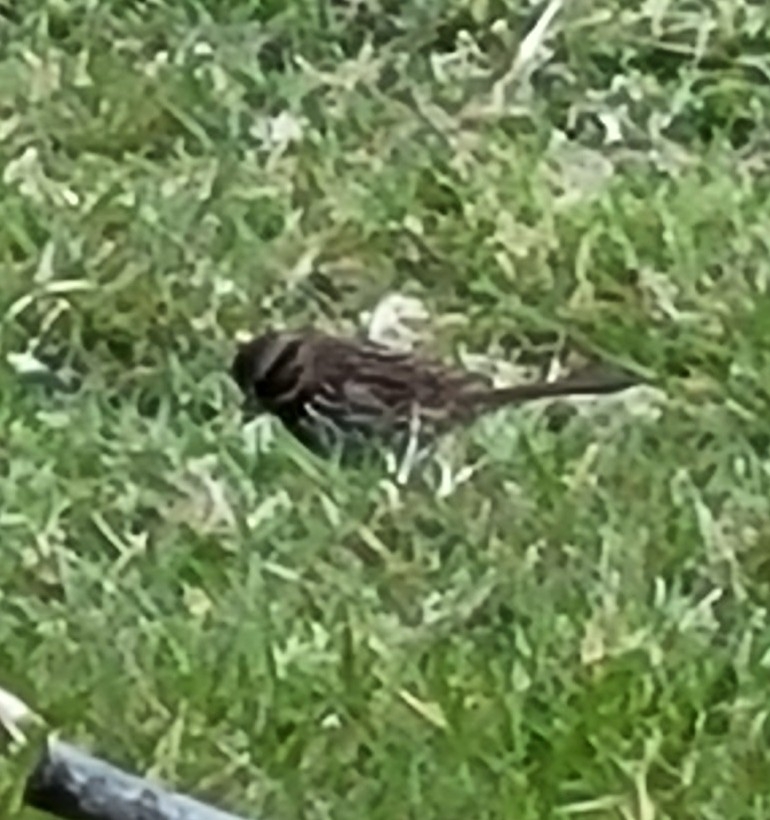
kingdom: Animalia
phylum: Chordata
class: Aves
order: Passeriformes
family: Passerellidae
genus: Melospiza
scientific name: Melospiza melodia
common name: Song sparrow
